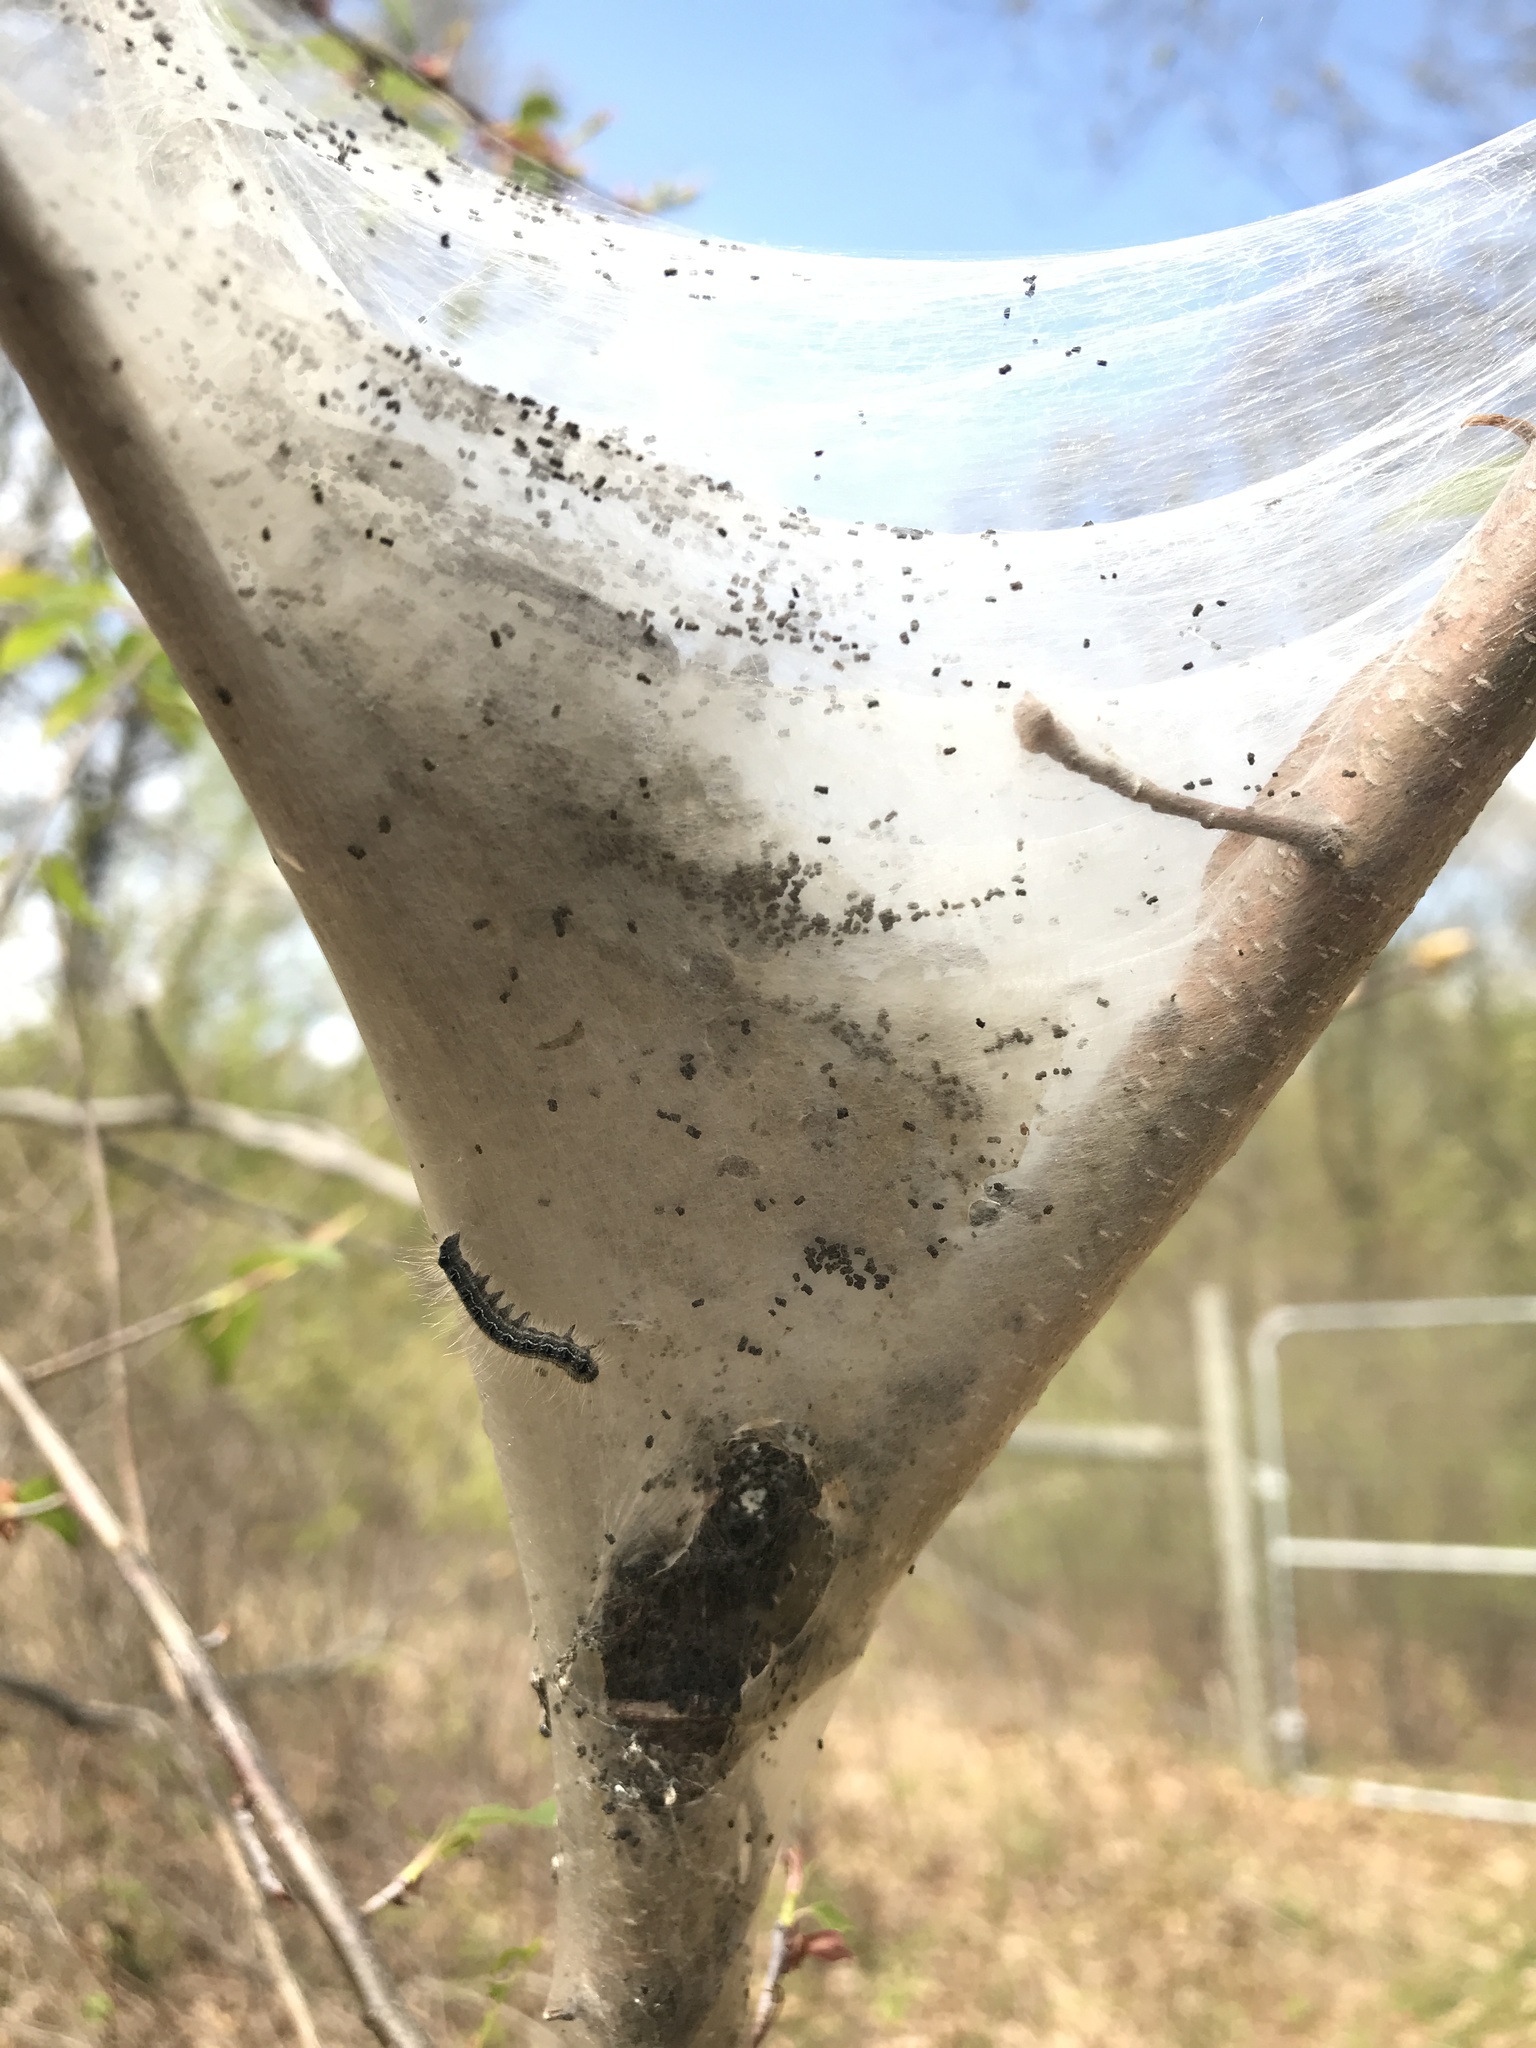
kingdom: Animalia
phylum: Arthropoda
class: Insecta
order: Lepidoptera
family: Lasiocampidae
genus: Malacosoma
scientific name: Malacosoma americana
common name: Eastern tent caterpillar moth
